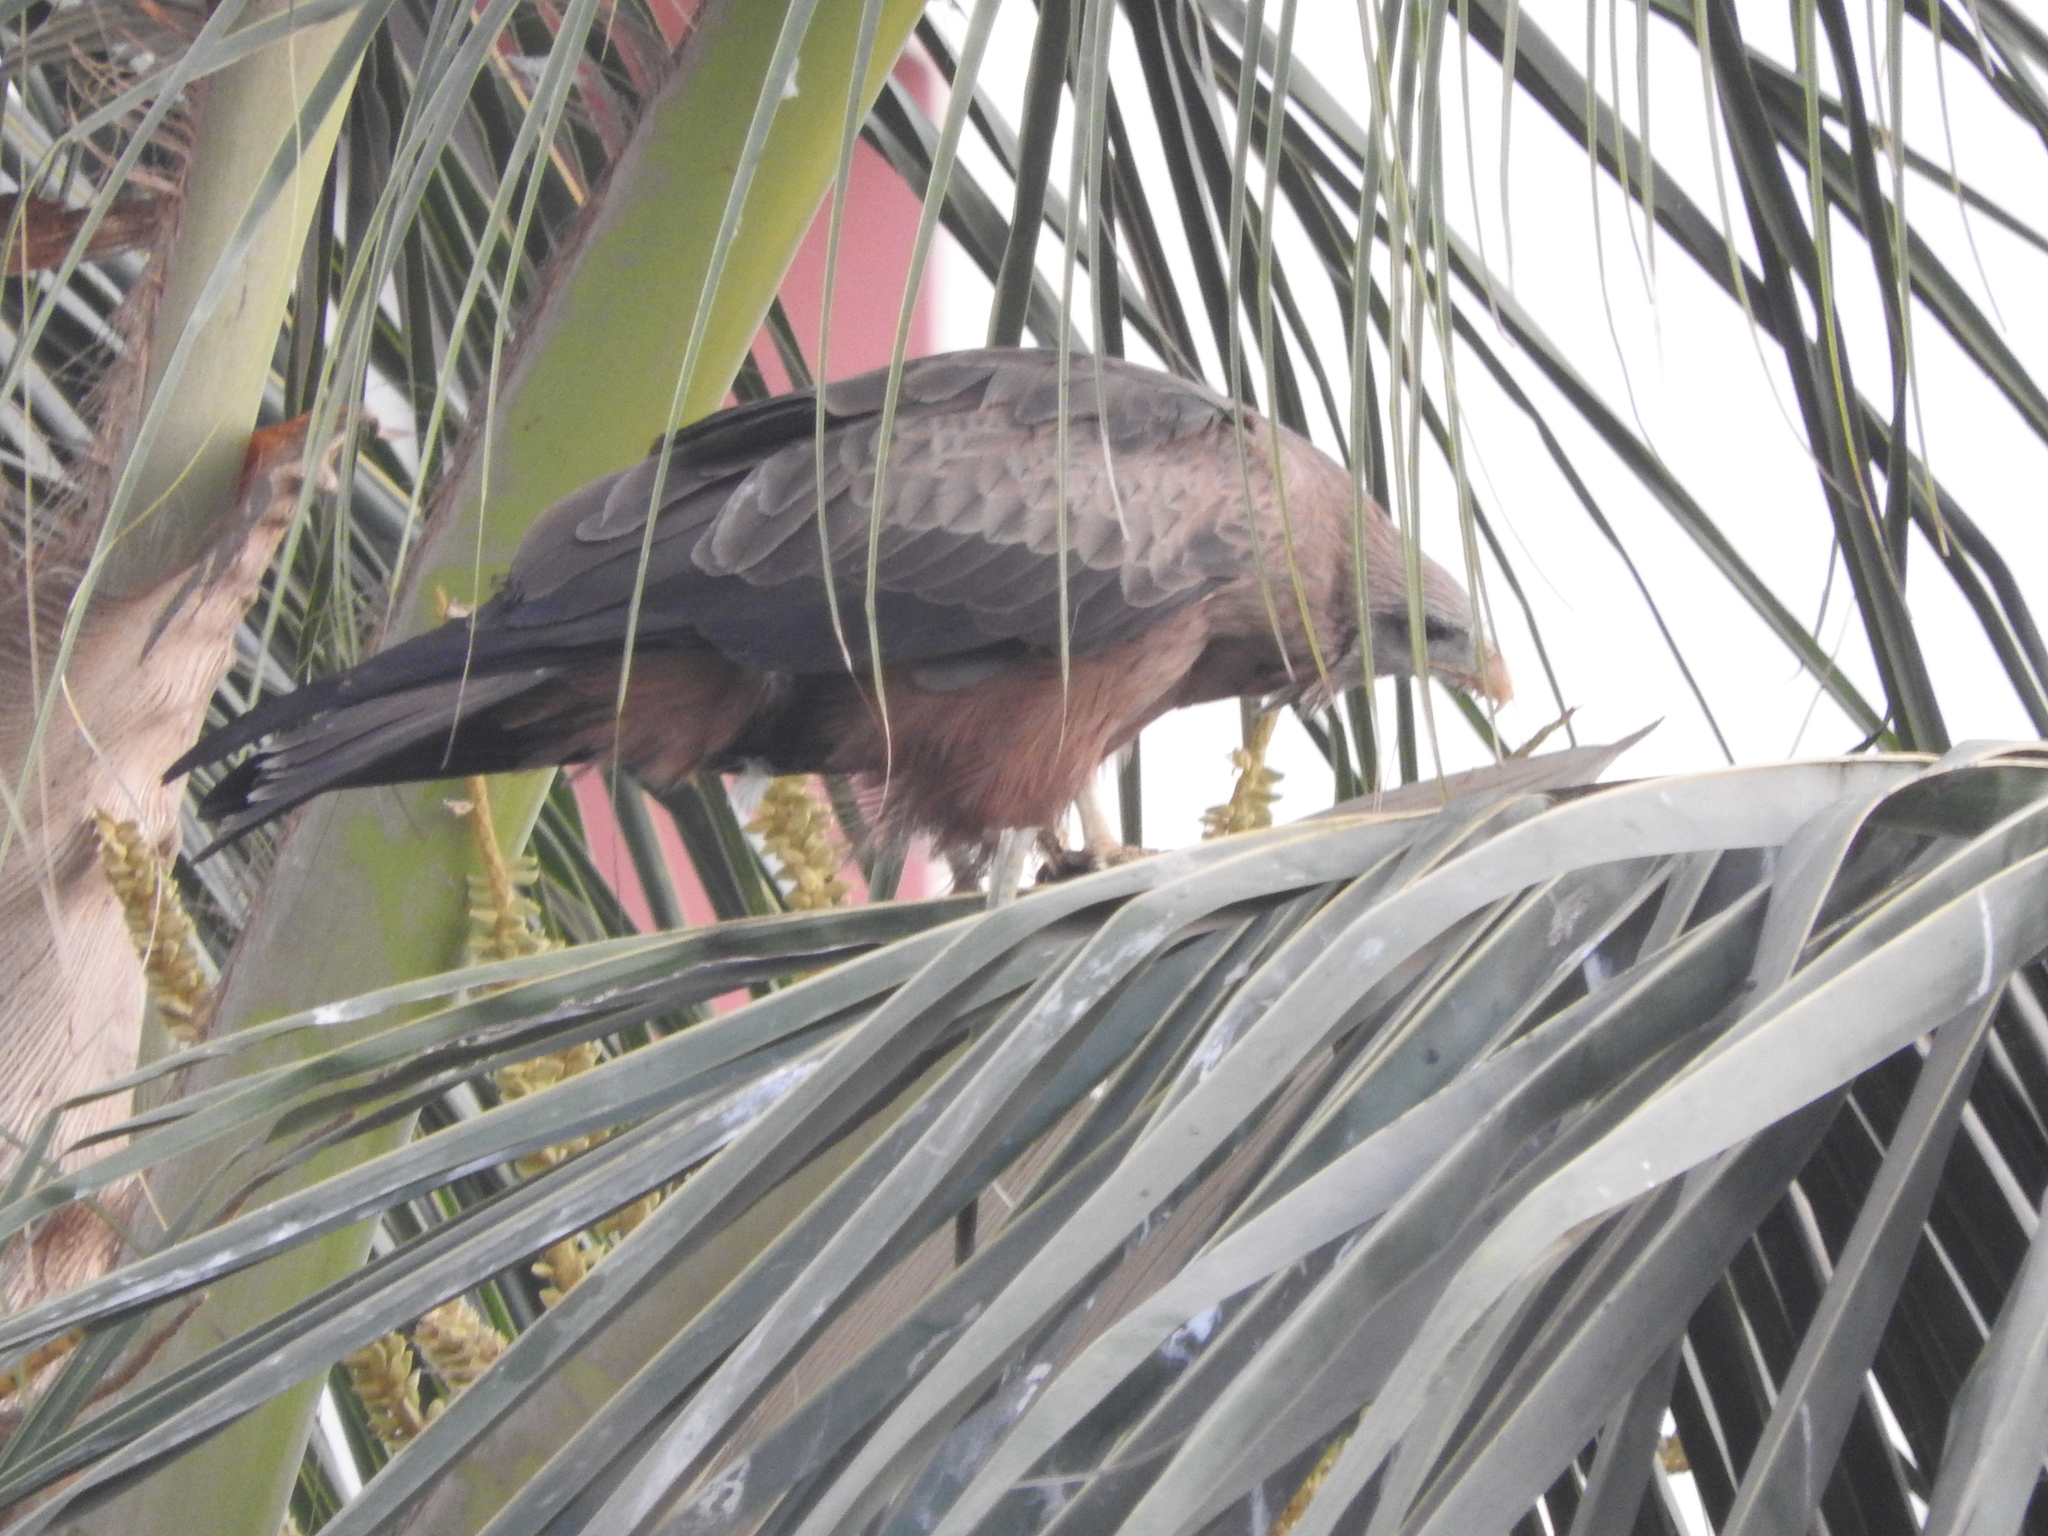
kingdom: Animalia
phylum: Chordata
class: Aves
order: Accipitriformes
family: Accipitridae
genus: Milvus
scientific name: Milvus migrans
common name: Black kite
